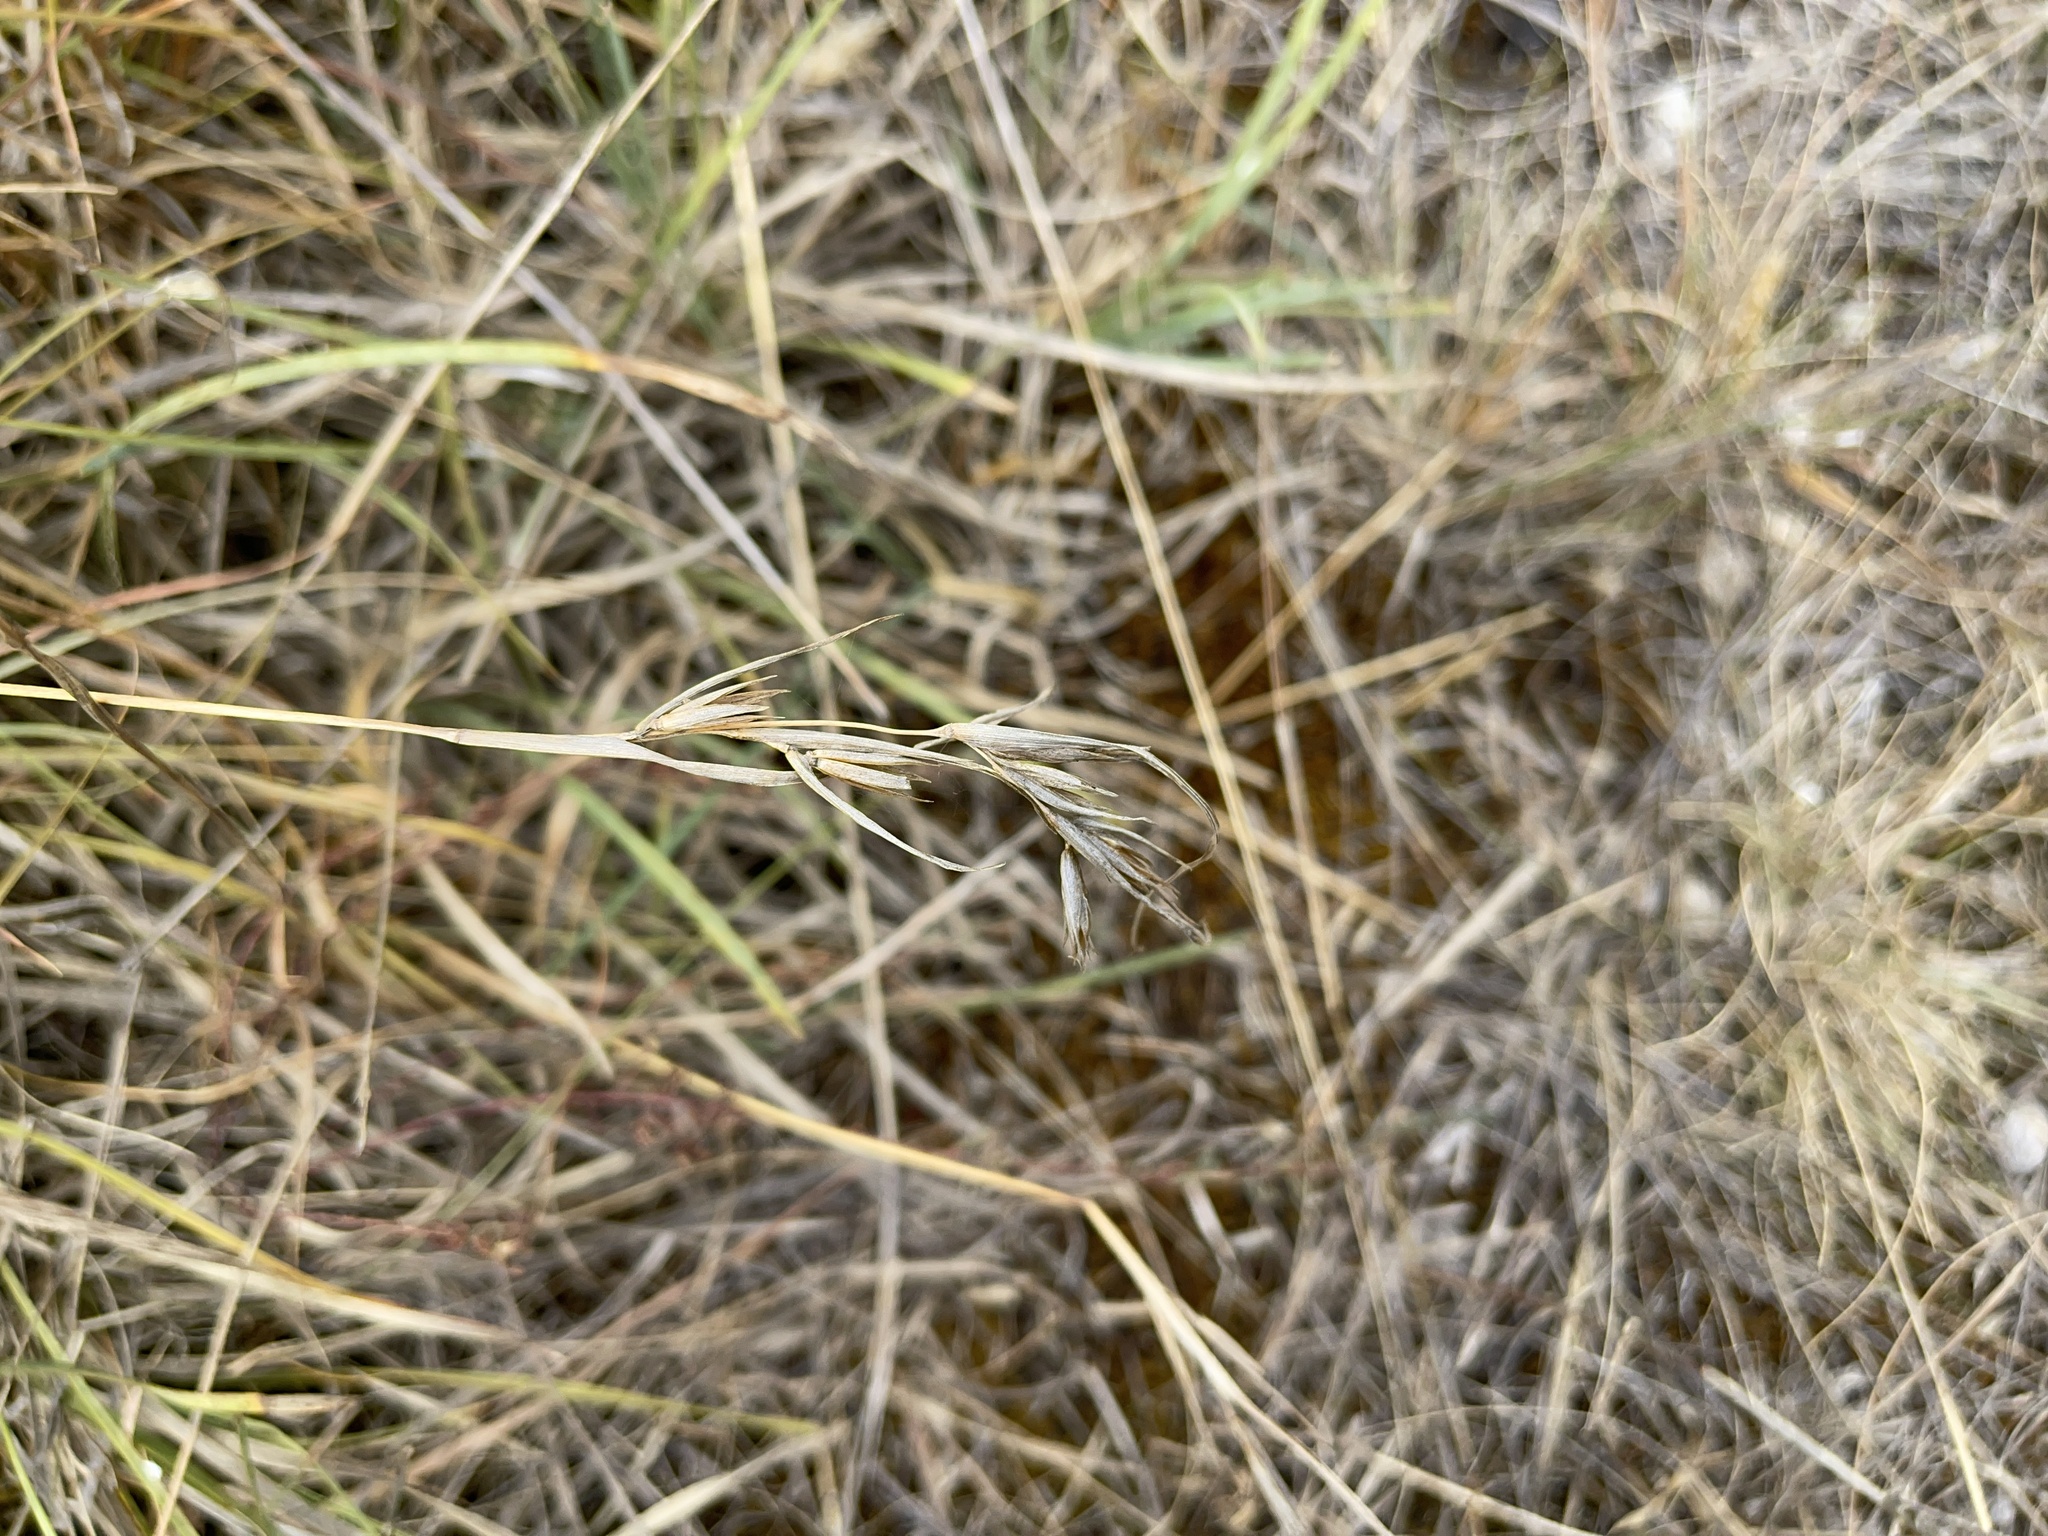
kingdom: Plantae
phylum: Tracheophyta
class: Liliopsida
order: Poales
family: Poaceae
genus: Themeda
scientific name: Themeda triandra
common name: Kangaroo grass
